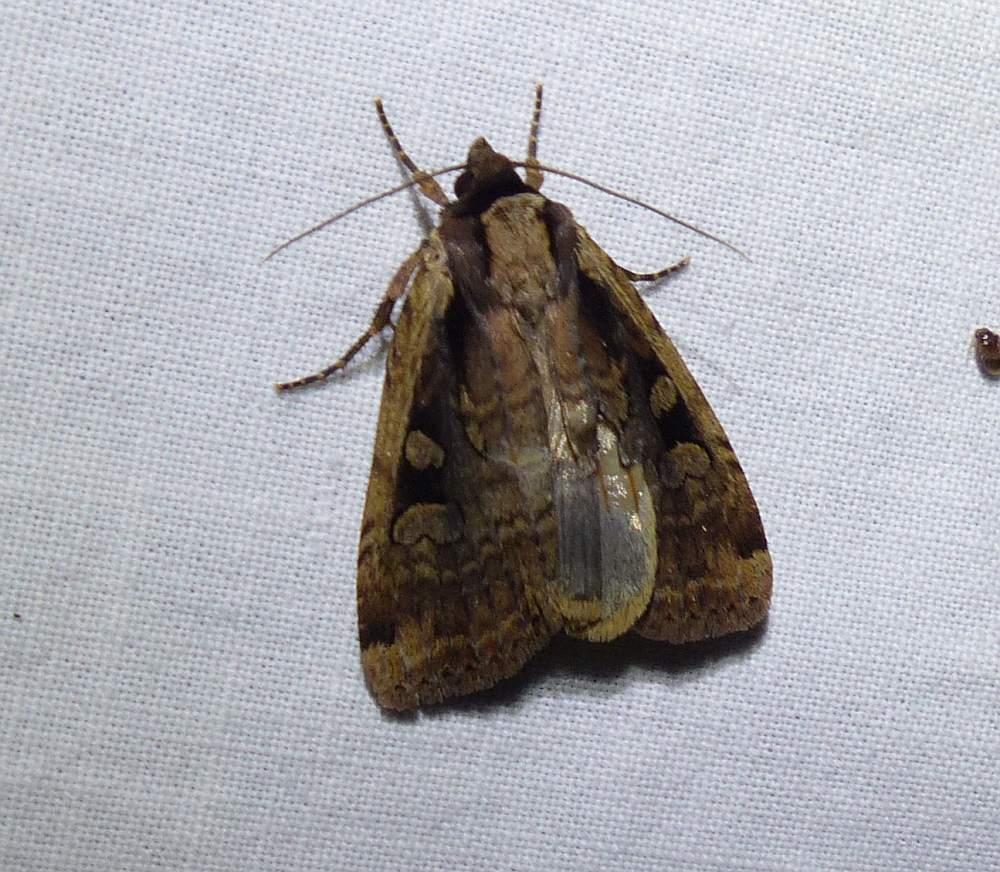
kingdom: Animalia
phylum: Arthropoda
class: Insecta
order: Lepidoptera
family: Noctuidae
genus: Eueretagrotis
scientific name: Eueretagrotis sigmoides
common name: Sigmoid dart
